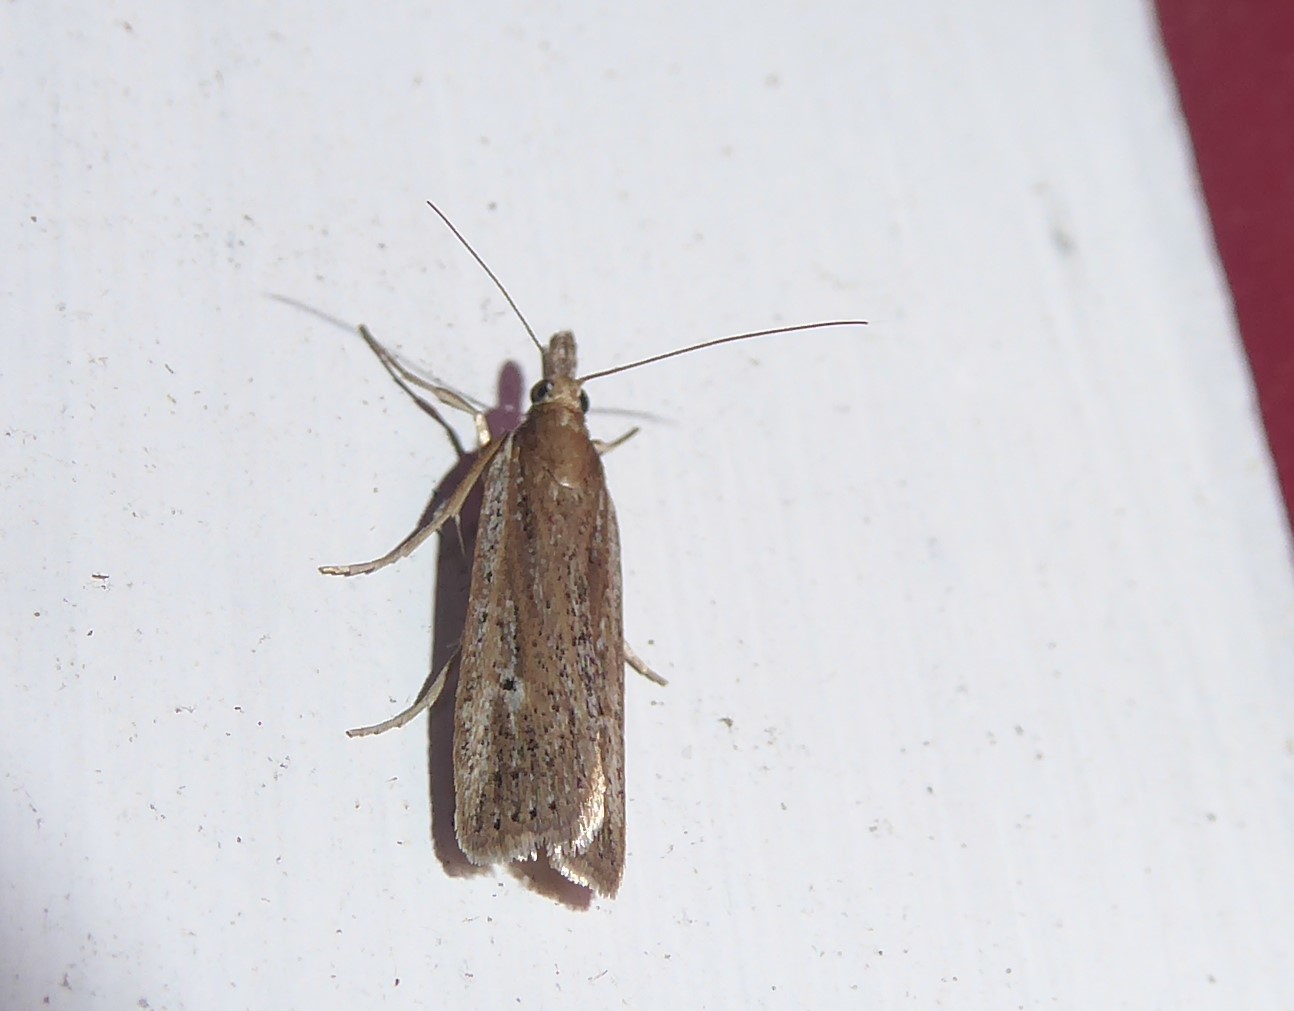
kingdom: Animalia
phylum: Arthropoda
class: Insecta
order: Lepidoptera
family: Crambidae
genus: Eudonia
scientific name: Eudonia sabulosella
